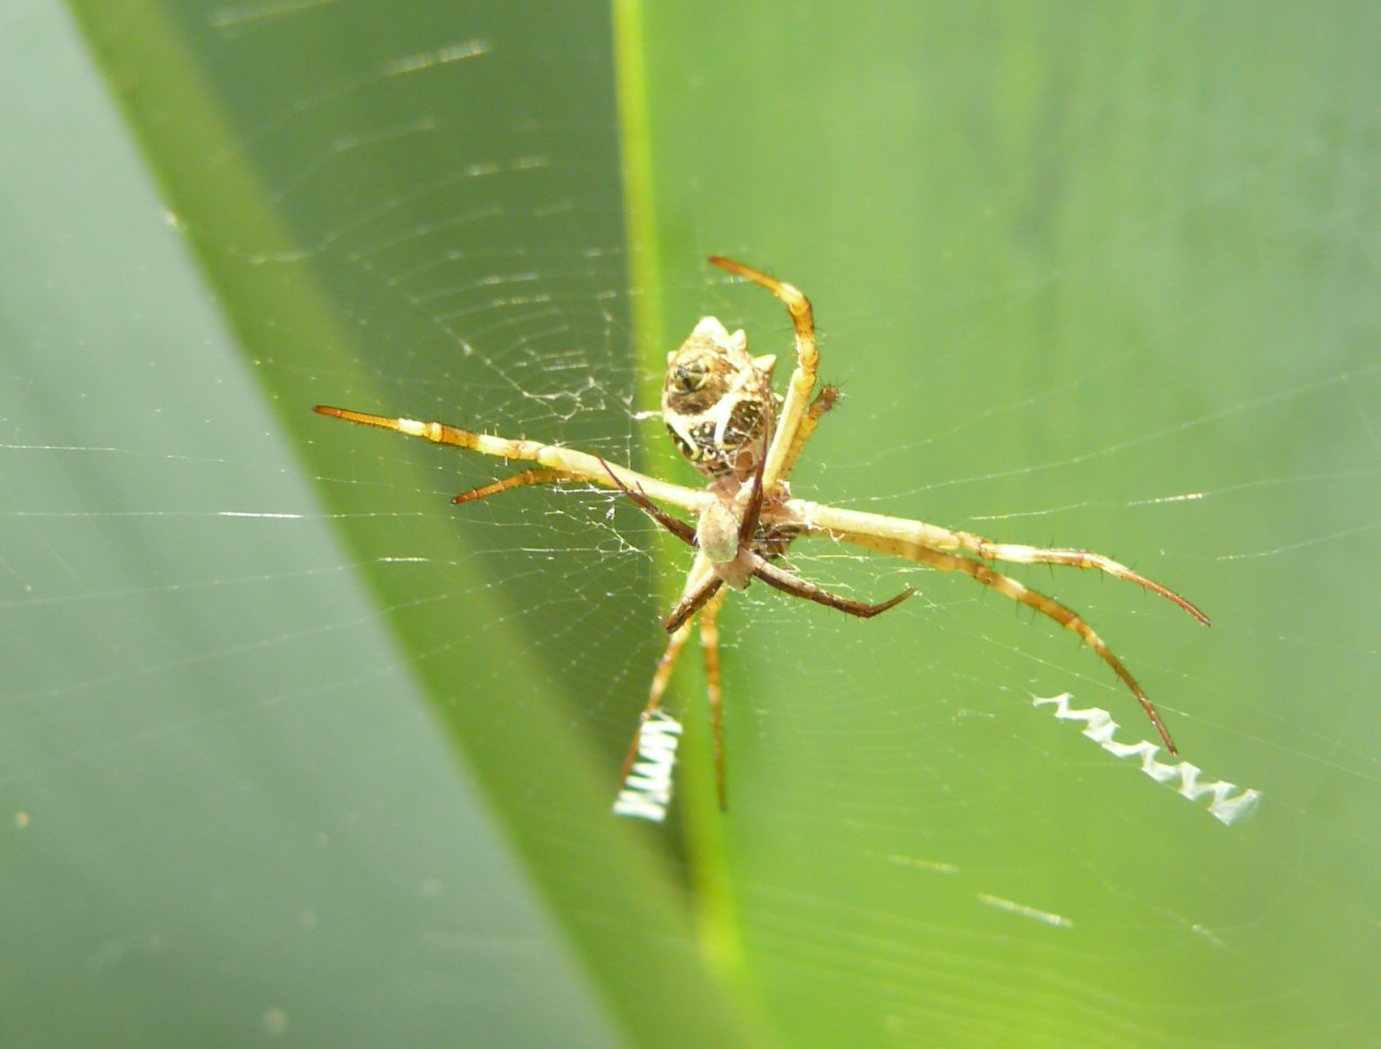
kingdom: Animalia
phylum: Arthropoda
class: Arachnida
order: Araneae
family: Araneidae
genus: Argiope
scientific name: Argiope argentata
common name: Orb weavers
